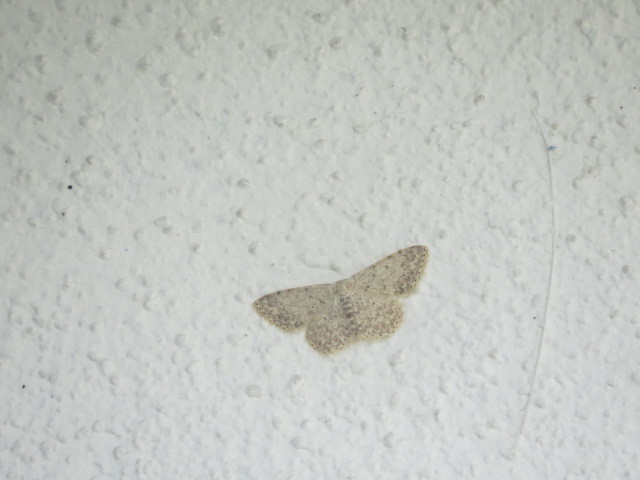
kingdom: Animalia
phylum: Arthropoda
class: Insecta
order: Lepidoptera
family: Geometridae
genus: Scopula
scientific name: Scopula marginepunctata
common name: Mullein wave
